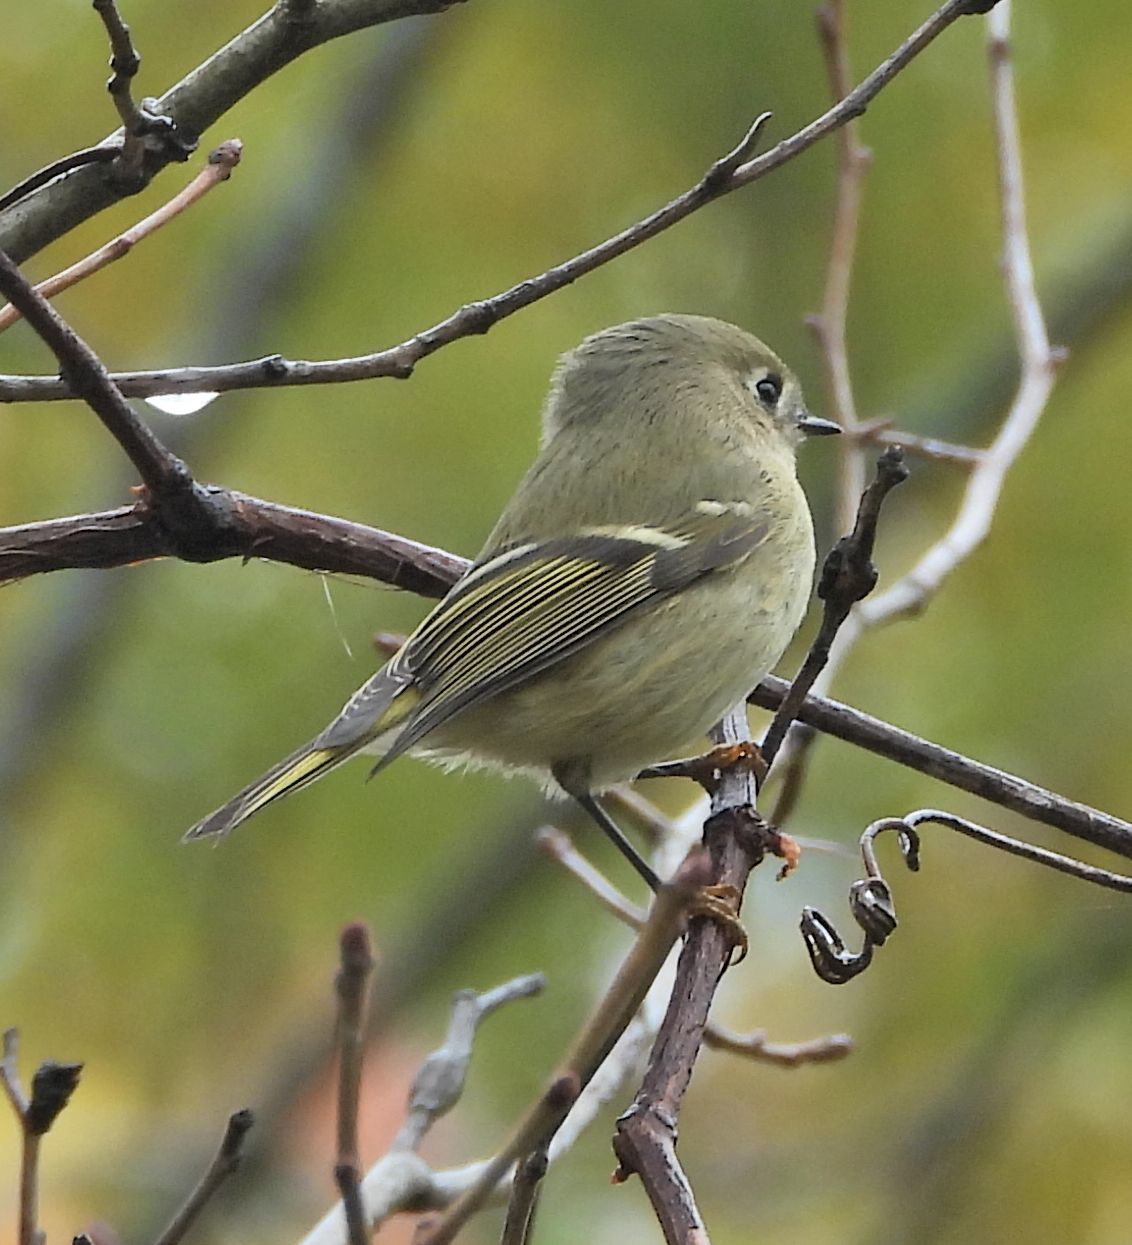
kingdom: Animalia
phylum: Chordata
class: Aves
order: Passeriformes
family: Regulidae
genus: Regulus
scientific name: Regulus calendula
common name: Ruby-crowned kinglet
